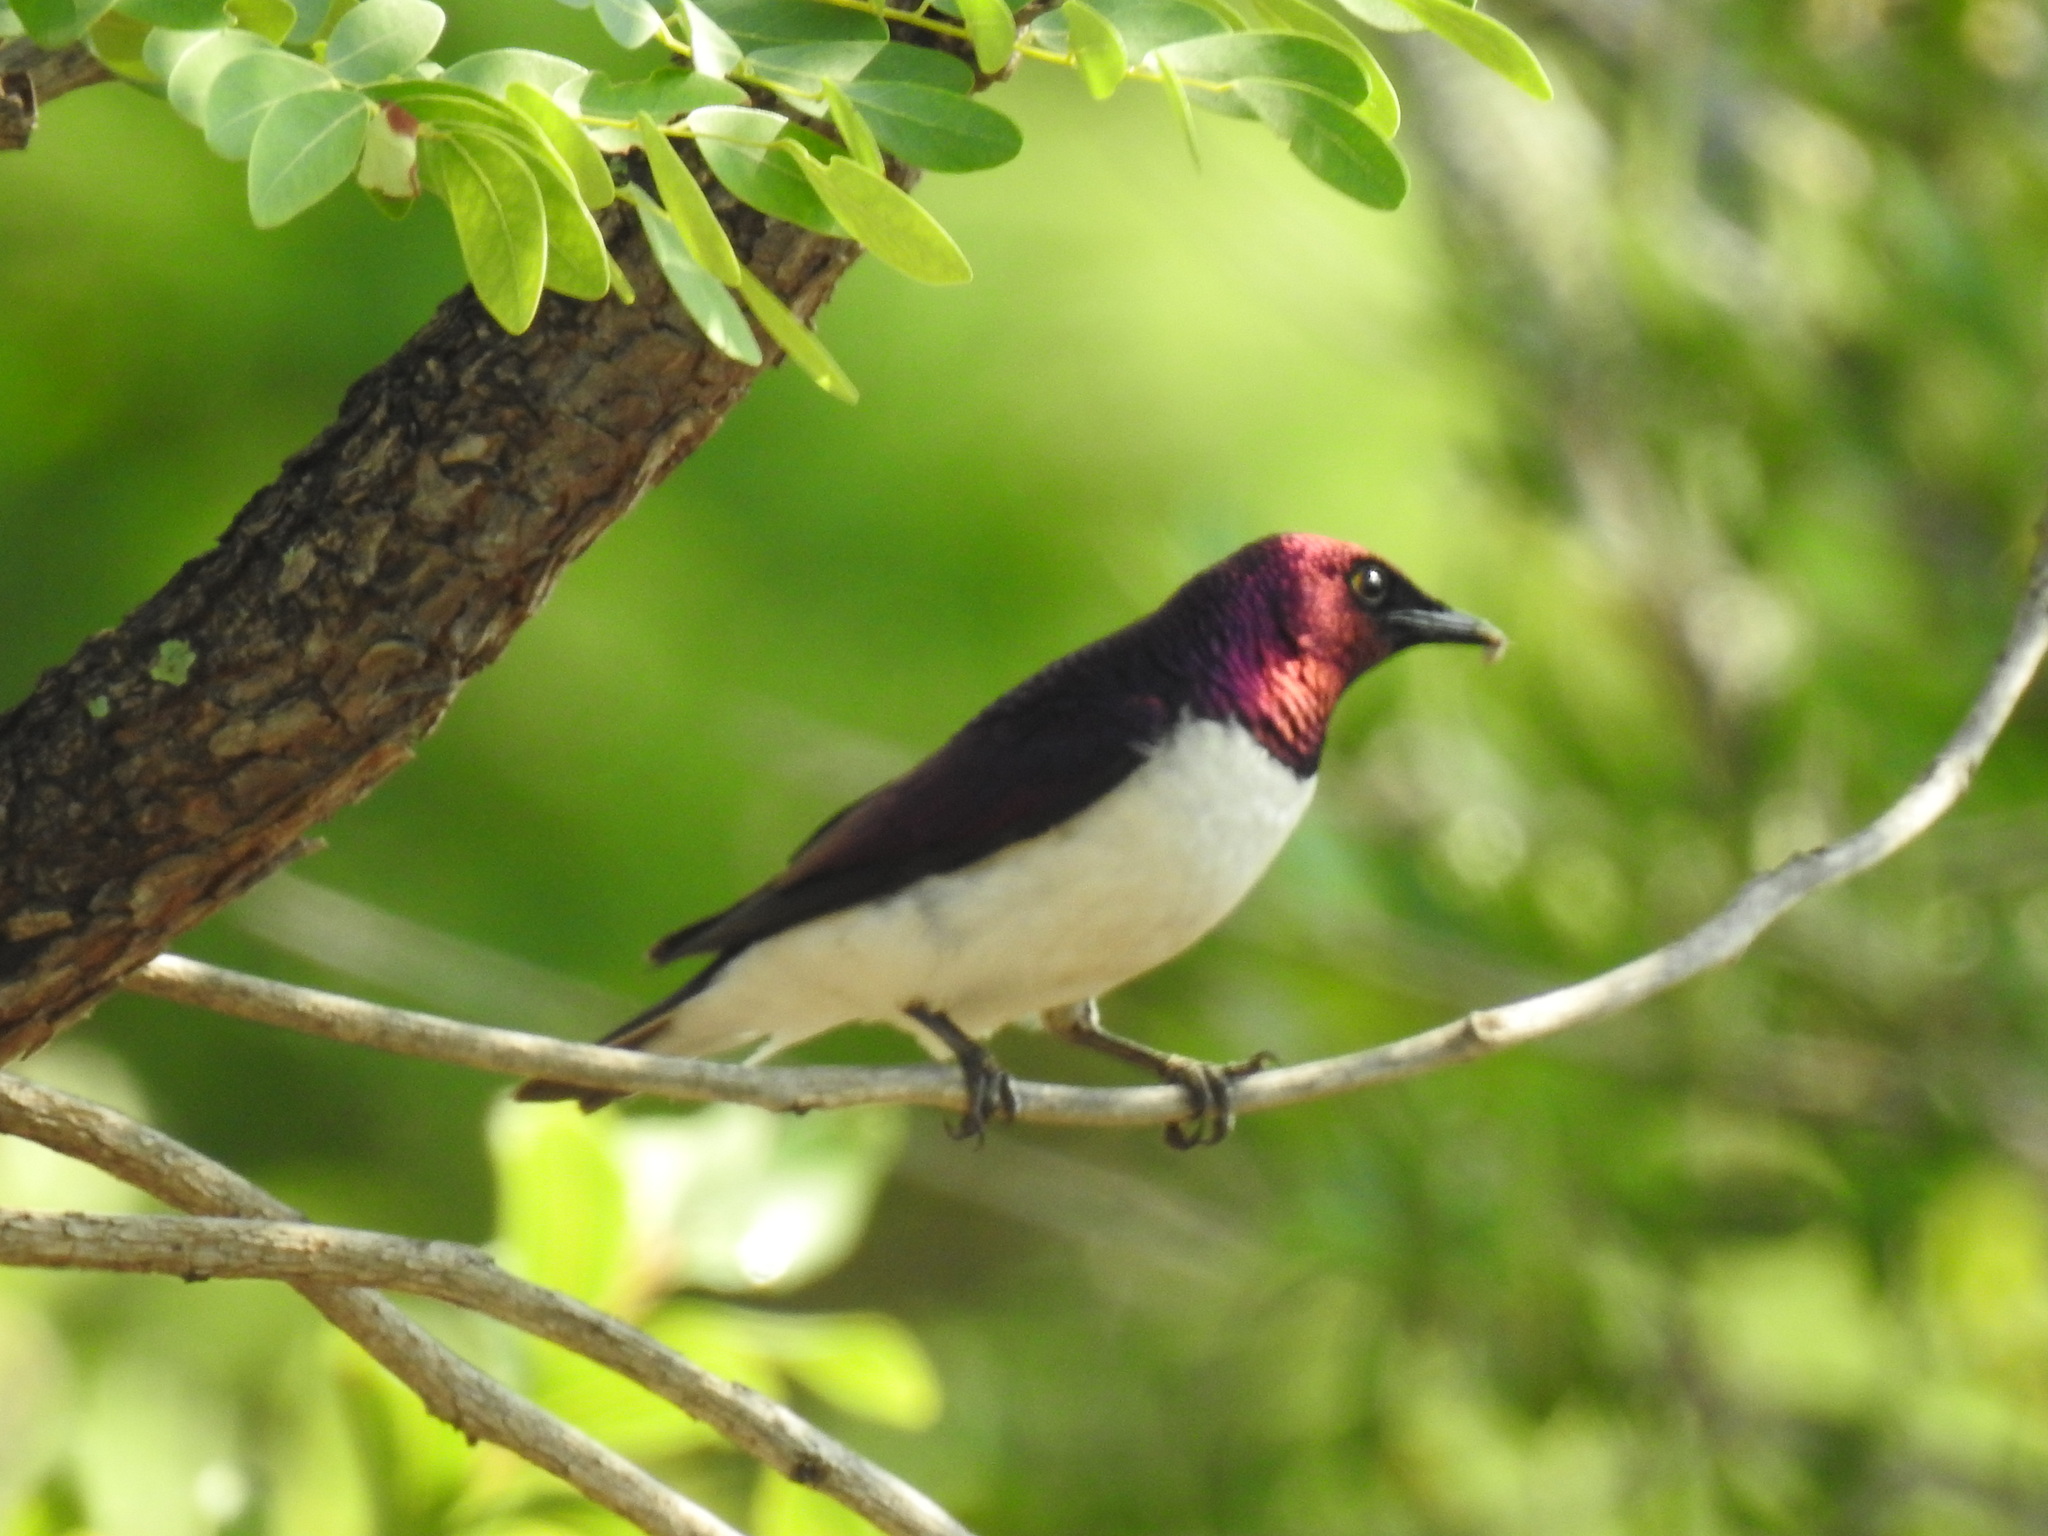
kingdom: Animalia
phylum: Chordata
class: Aves
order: Passeriformes
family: Sturnidae
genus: Cinnyricinclus
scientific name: Cinnyricinclus leucogaster
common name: Violet-backed starling
